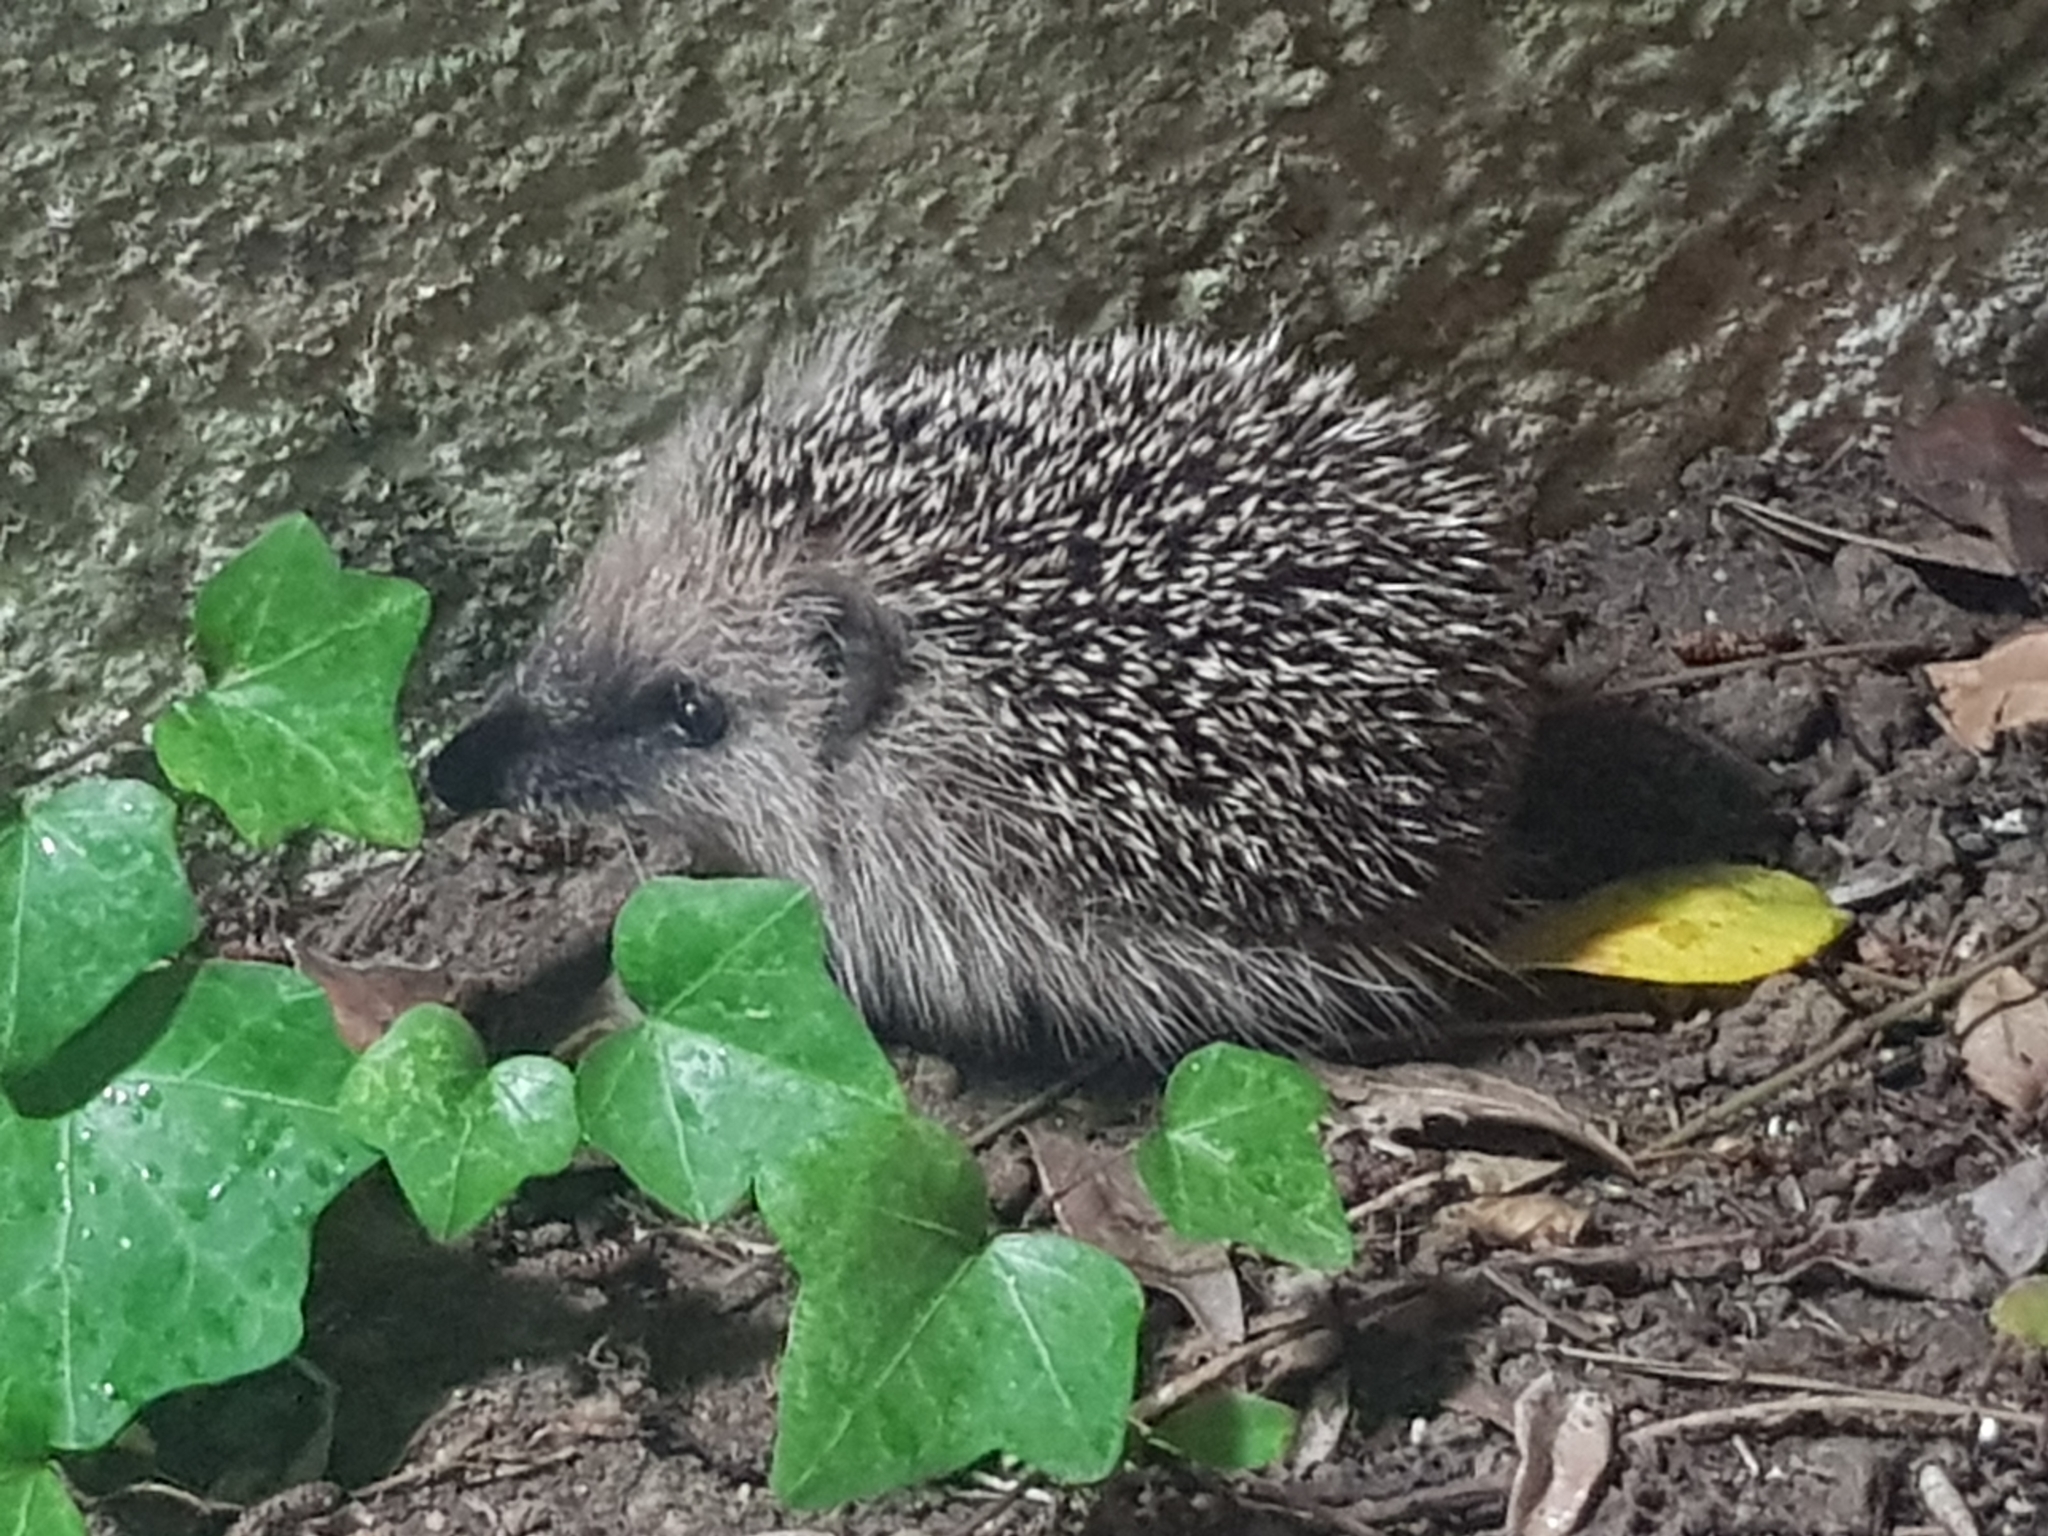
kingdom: Animalia
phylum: Chordata
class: Mammalia
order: Erinaceomorpha
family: Erinaceidae
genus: Erinaceus
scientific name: Erinaceus europaeus
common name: West european hedgehog
